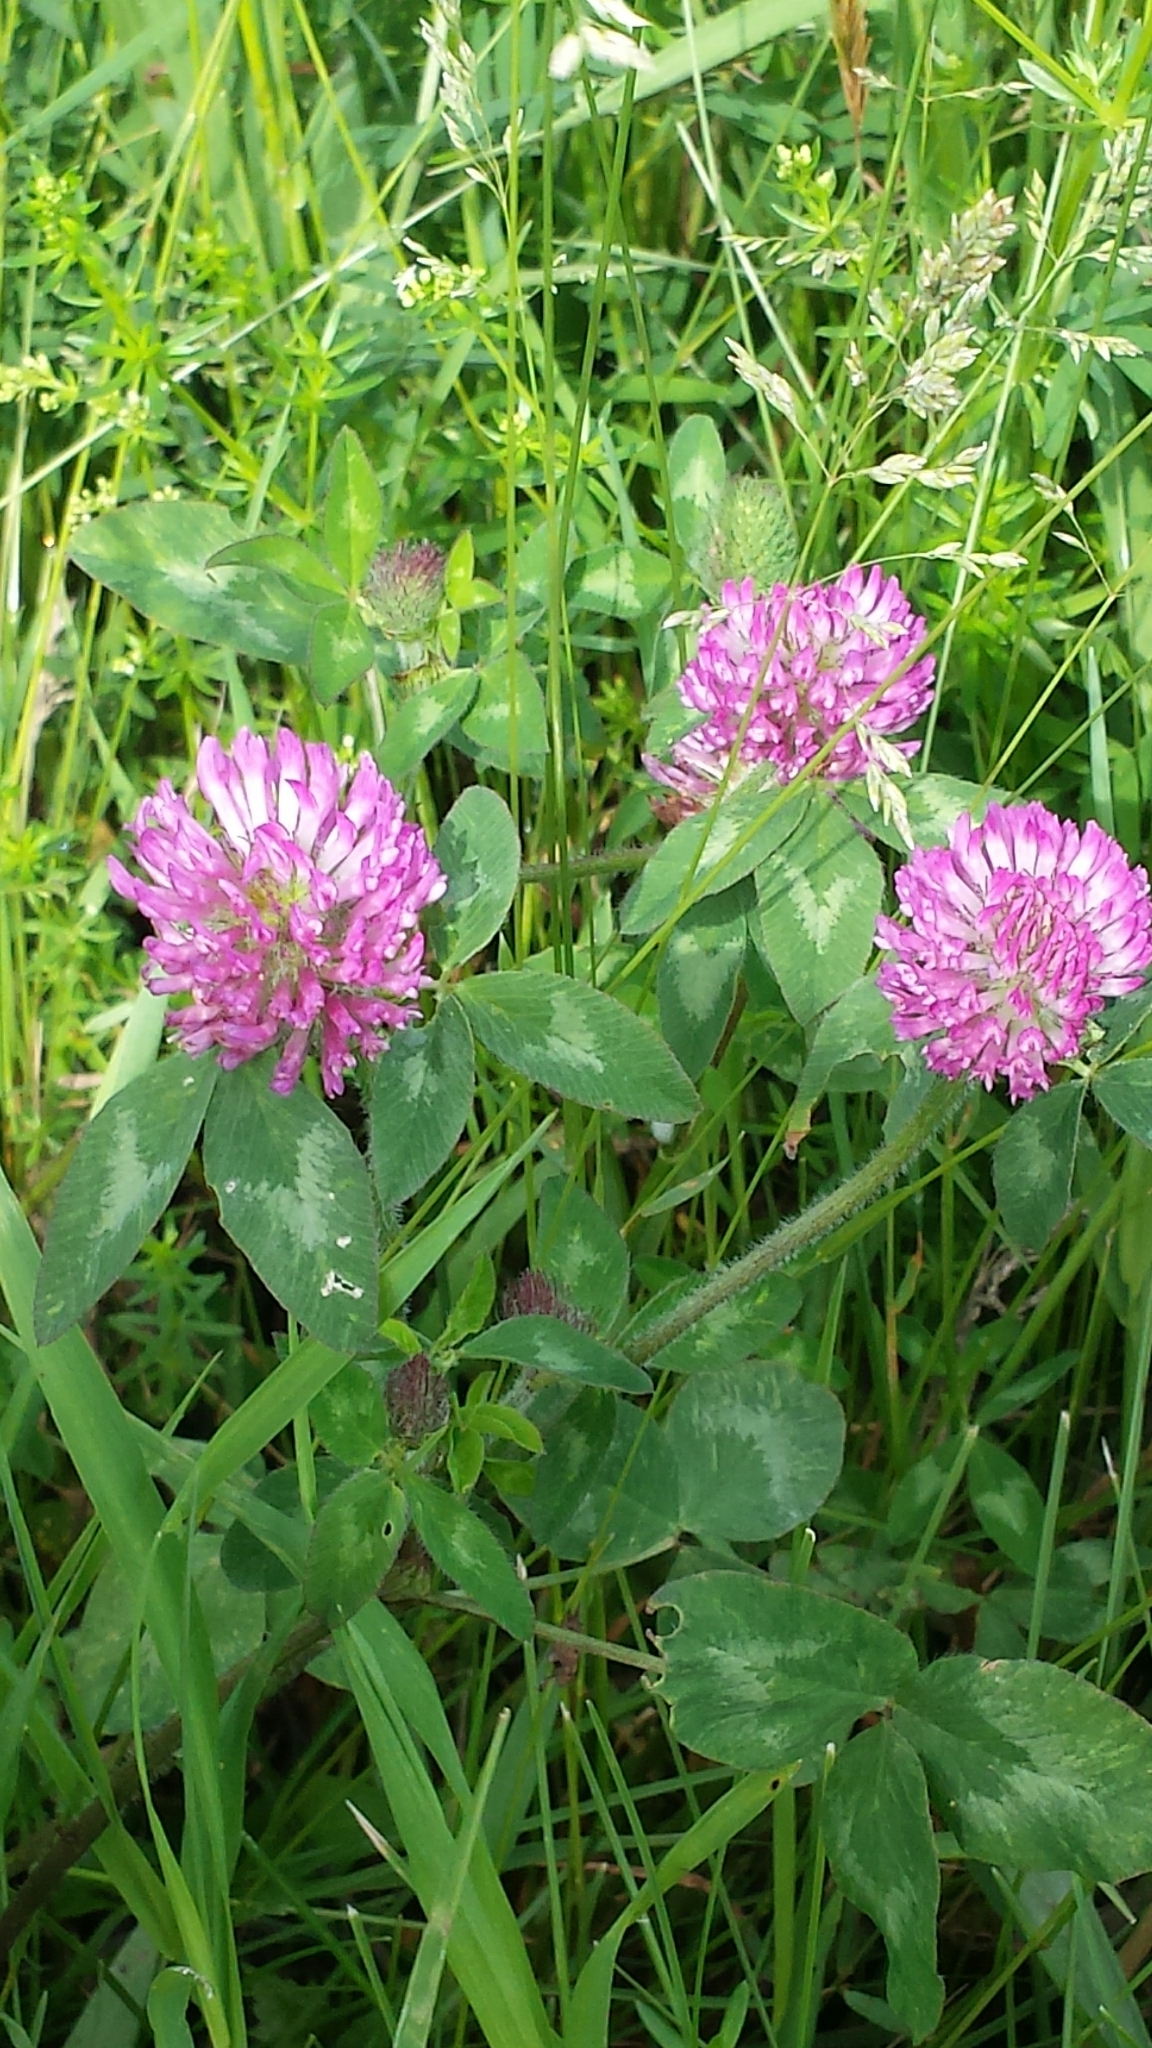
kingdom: Plantae
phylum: Tracheophyta
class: Magnoliopsida
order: Fabales
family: Fabaceae
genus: Trifolium
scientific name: Trifolium pratense
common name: Red clover
